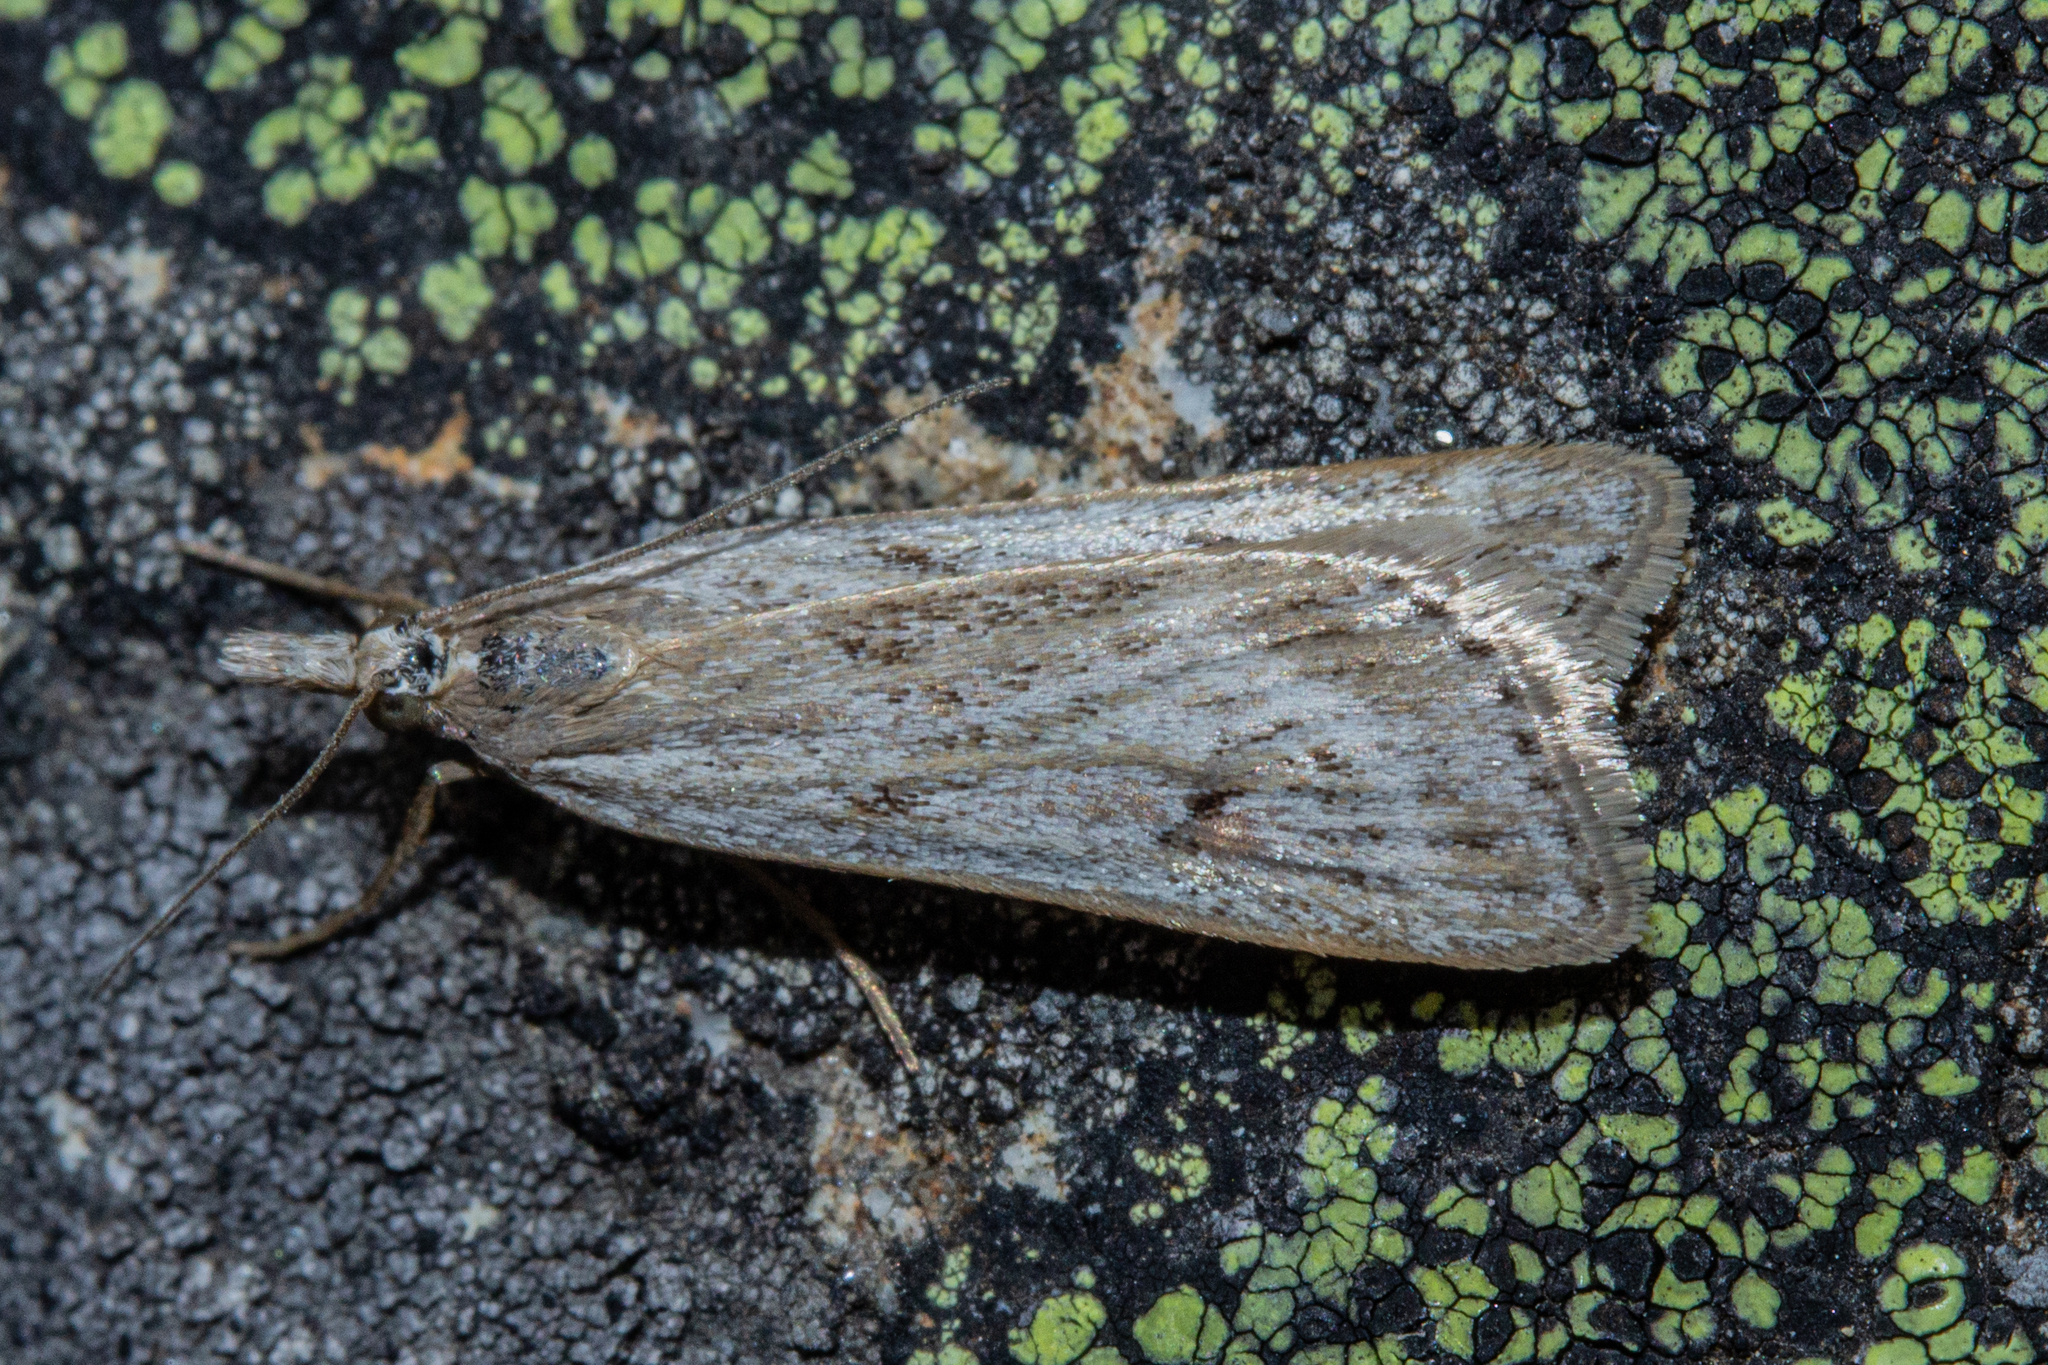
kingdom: Animalia
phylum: Arthropoda
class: Insecta
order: Lepidoptera
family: Crambidae
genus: Eudonia
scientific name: Eudonia deltophora
